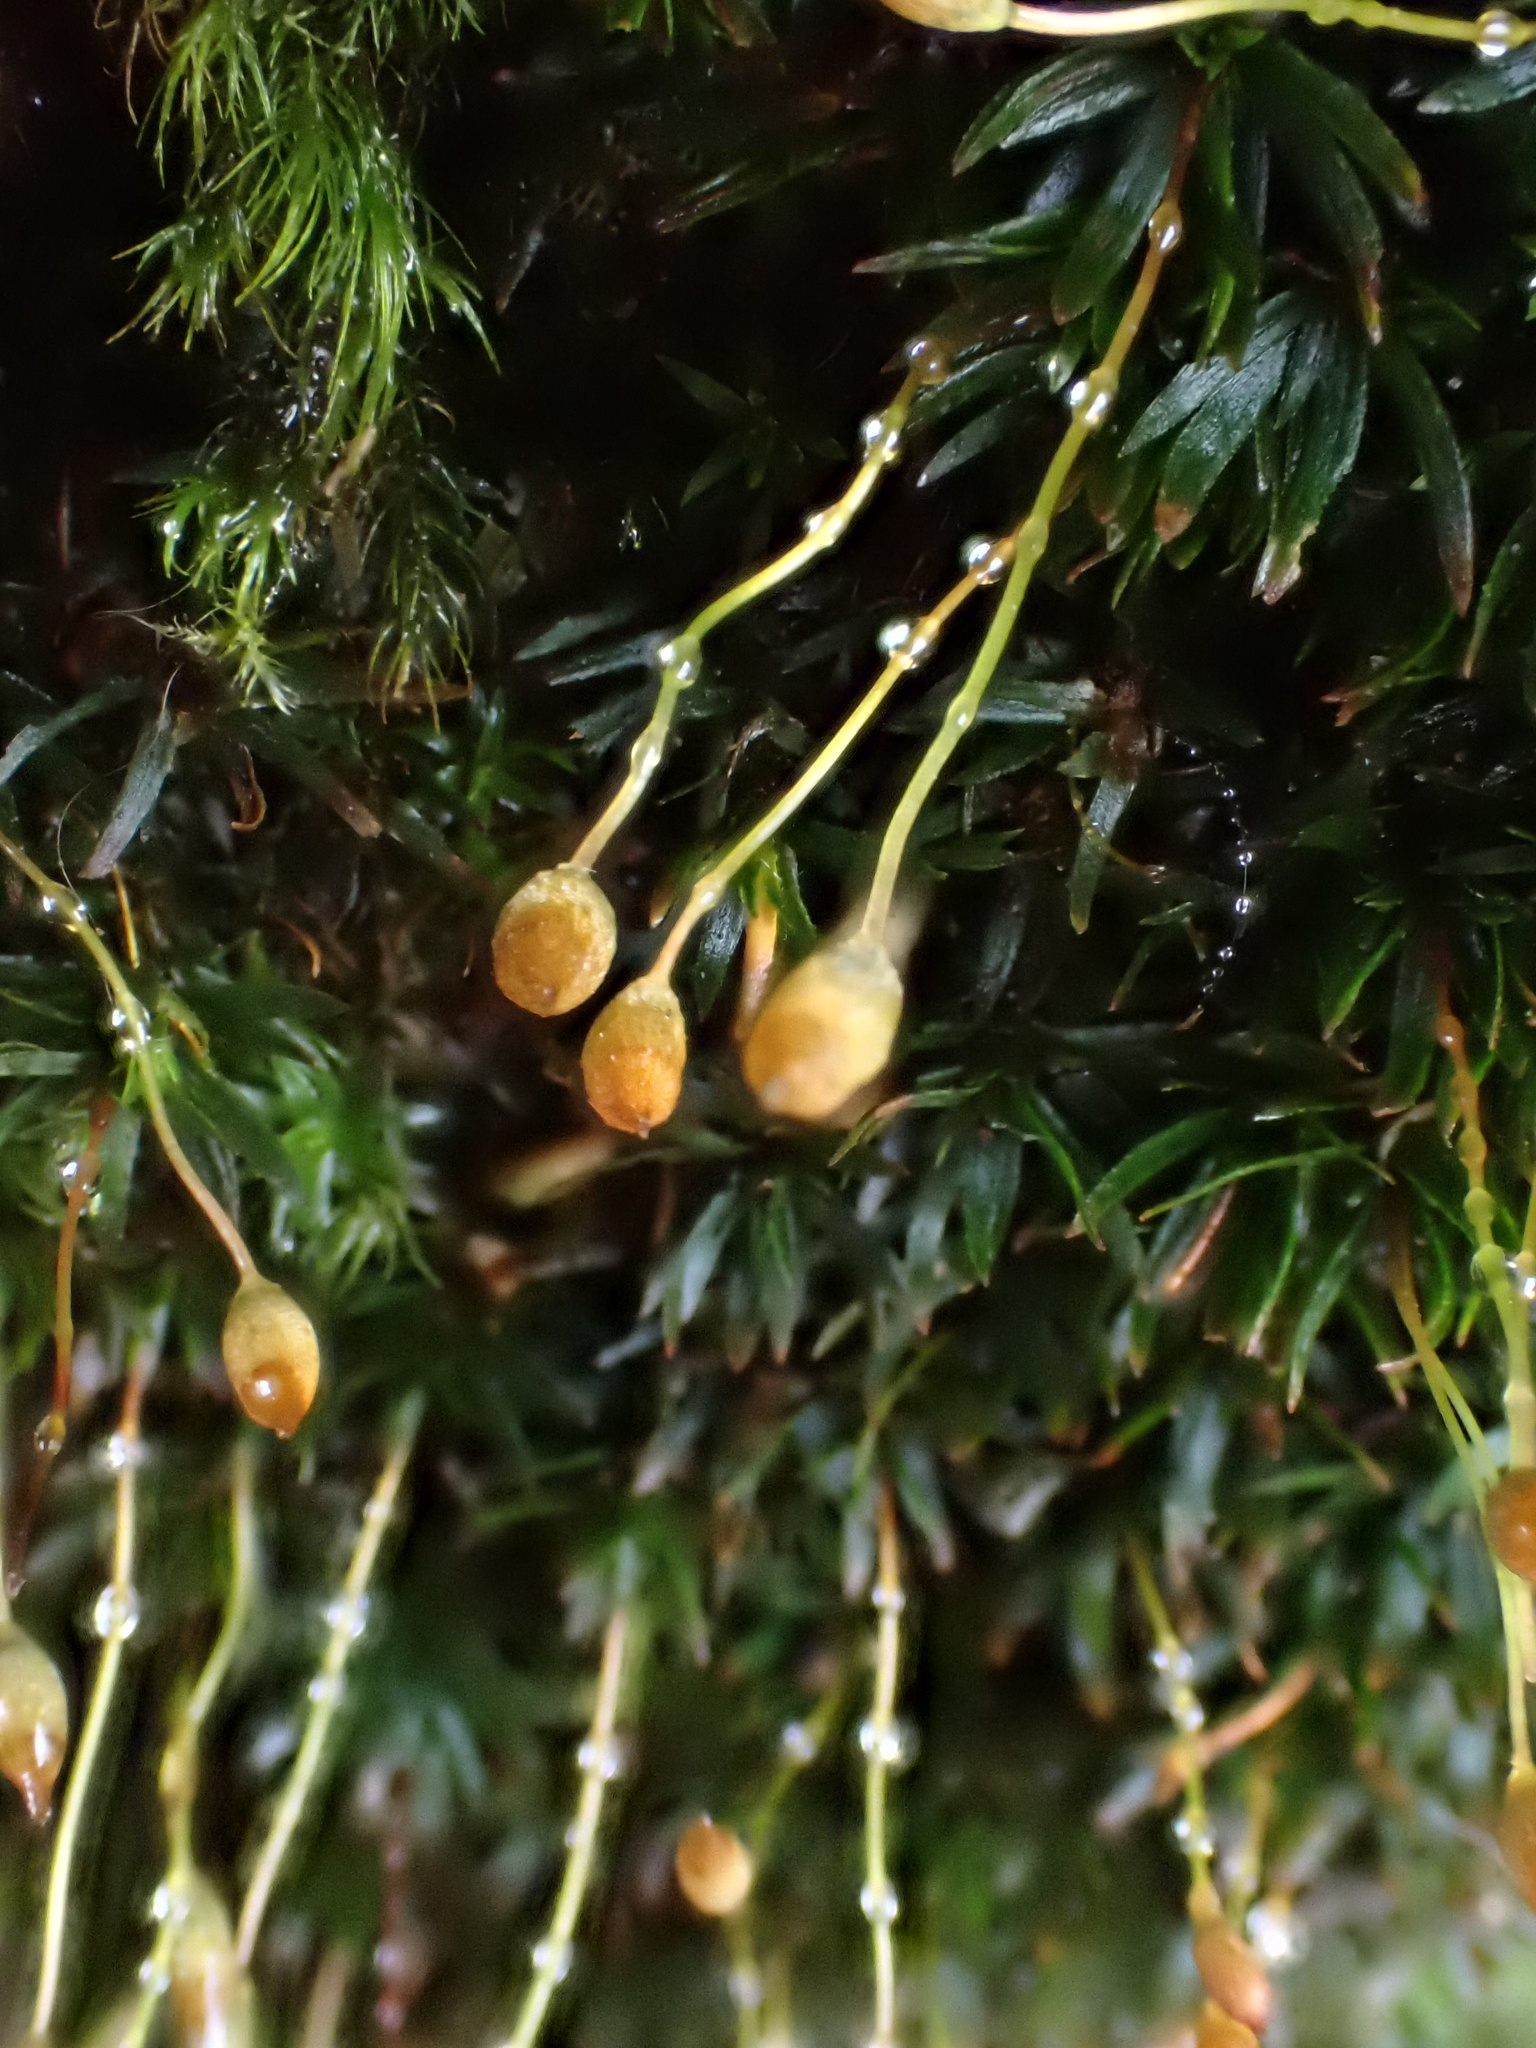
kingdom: Plantae
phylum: Bryophyta
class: Polytrichopsida
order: Polytrichales
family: Polytrichaceae
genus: Pogonatum
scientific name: Pogonatum aloides
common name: Aloe haircap
